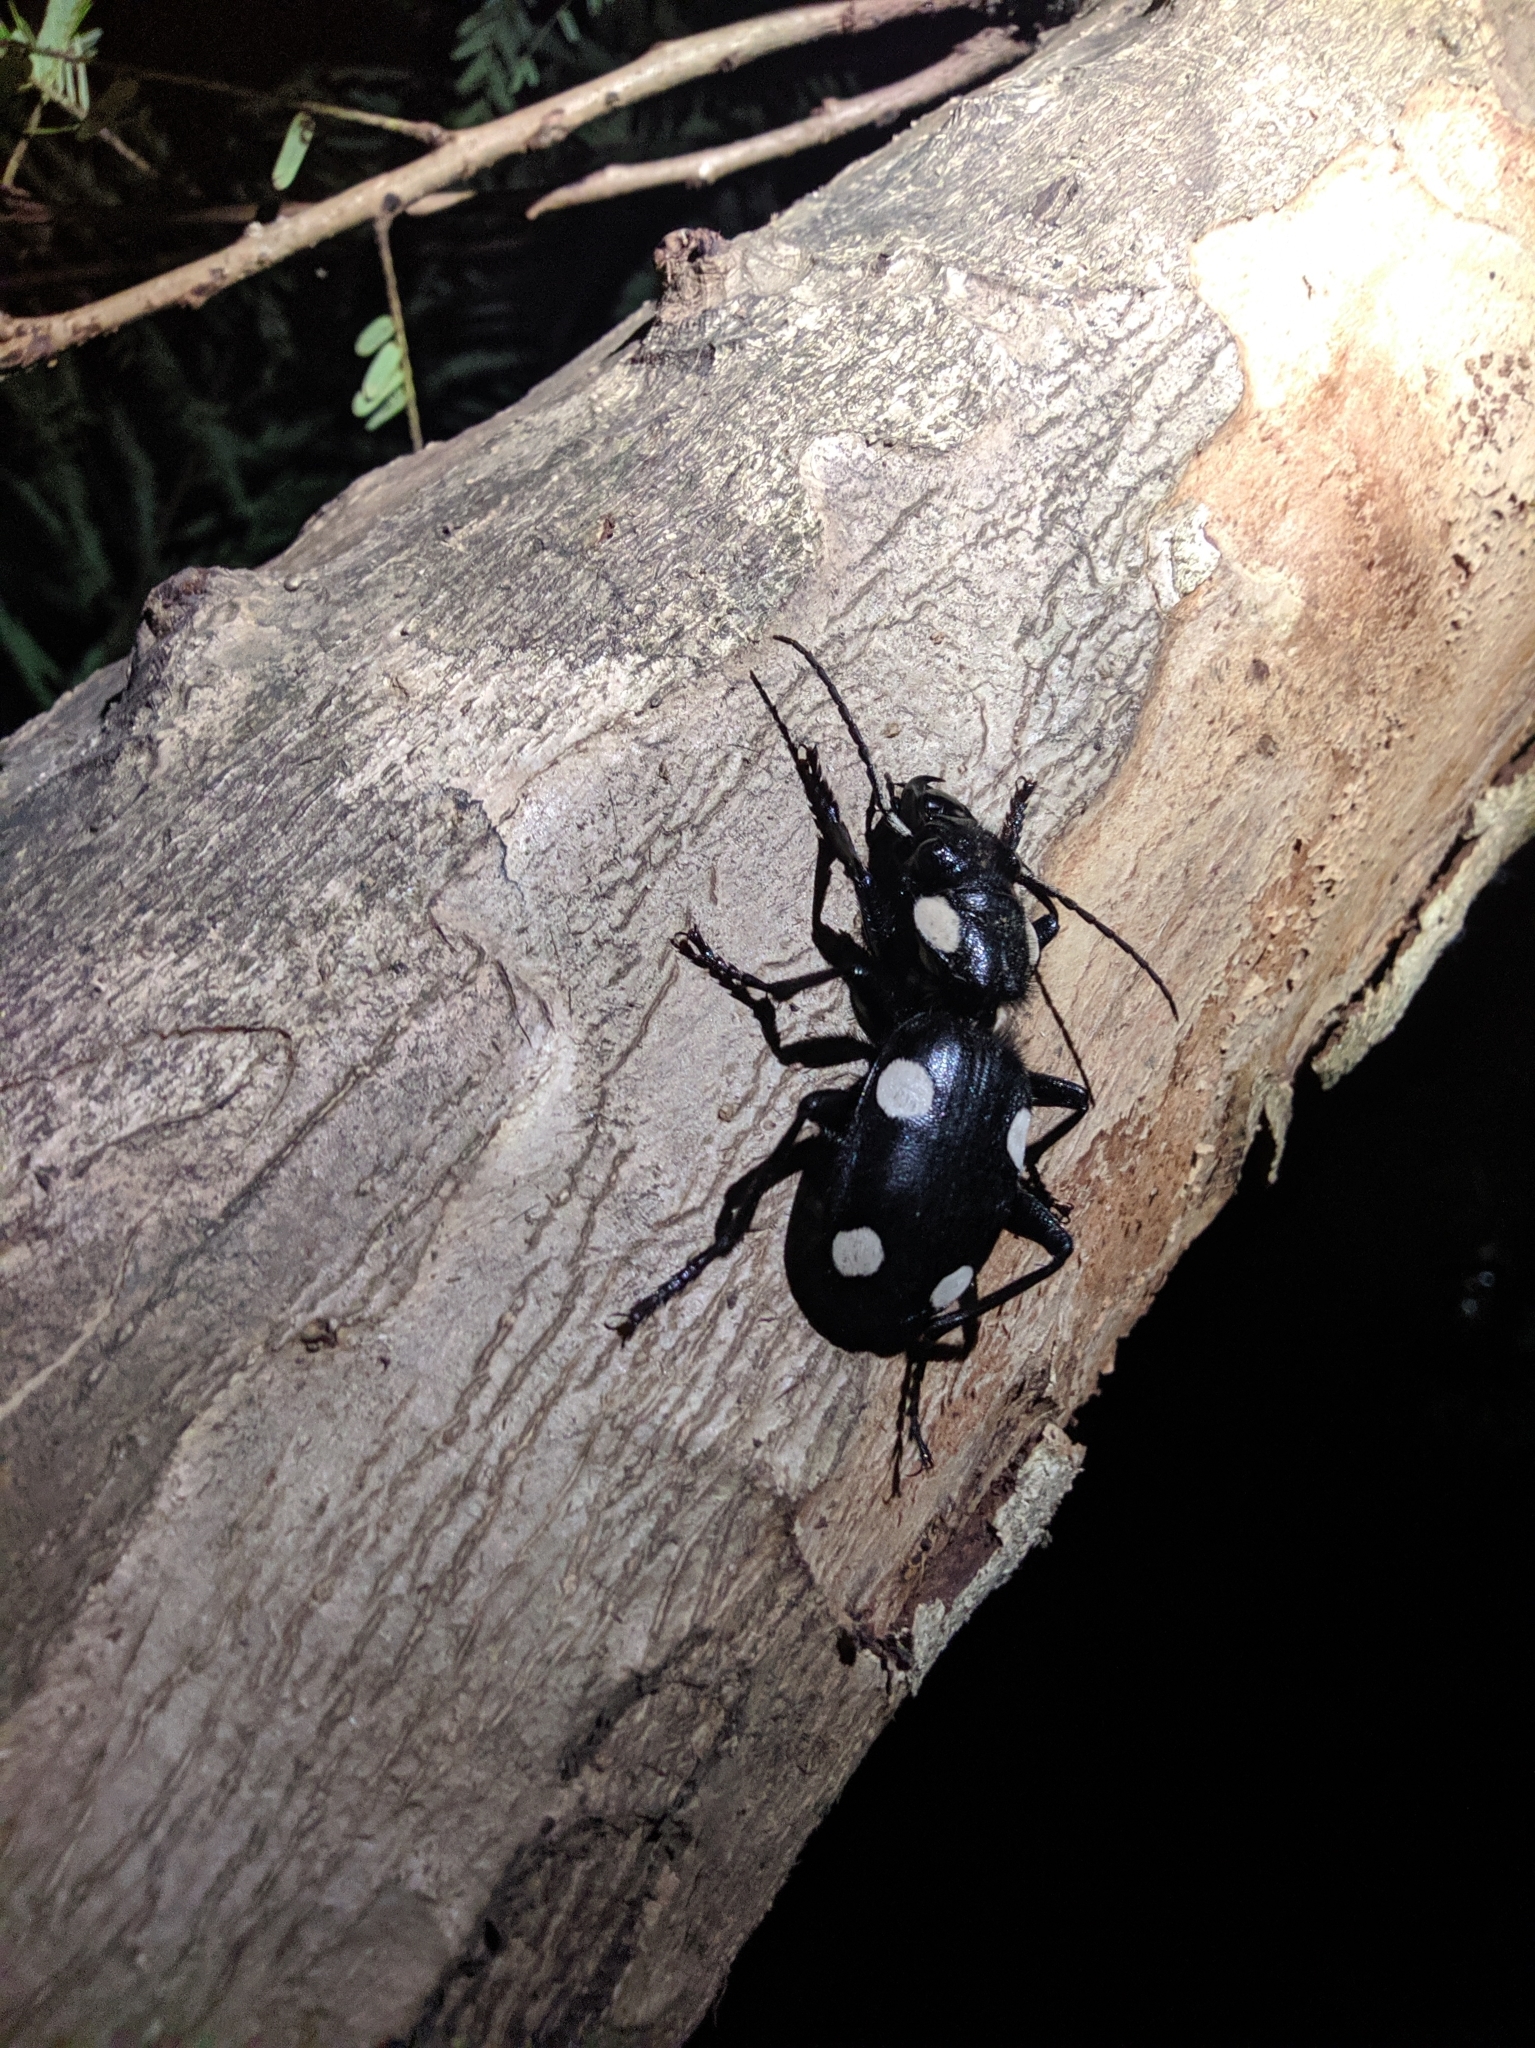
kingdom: Animalia
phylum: Arthropoda
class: Insecta
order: Coleoptera
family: Carabidae
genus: Anthia
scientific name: Anthia sexguttata
